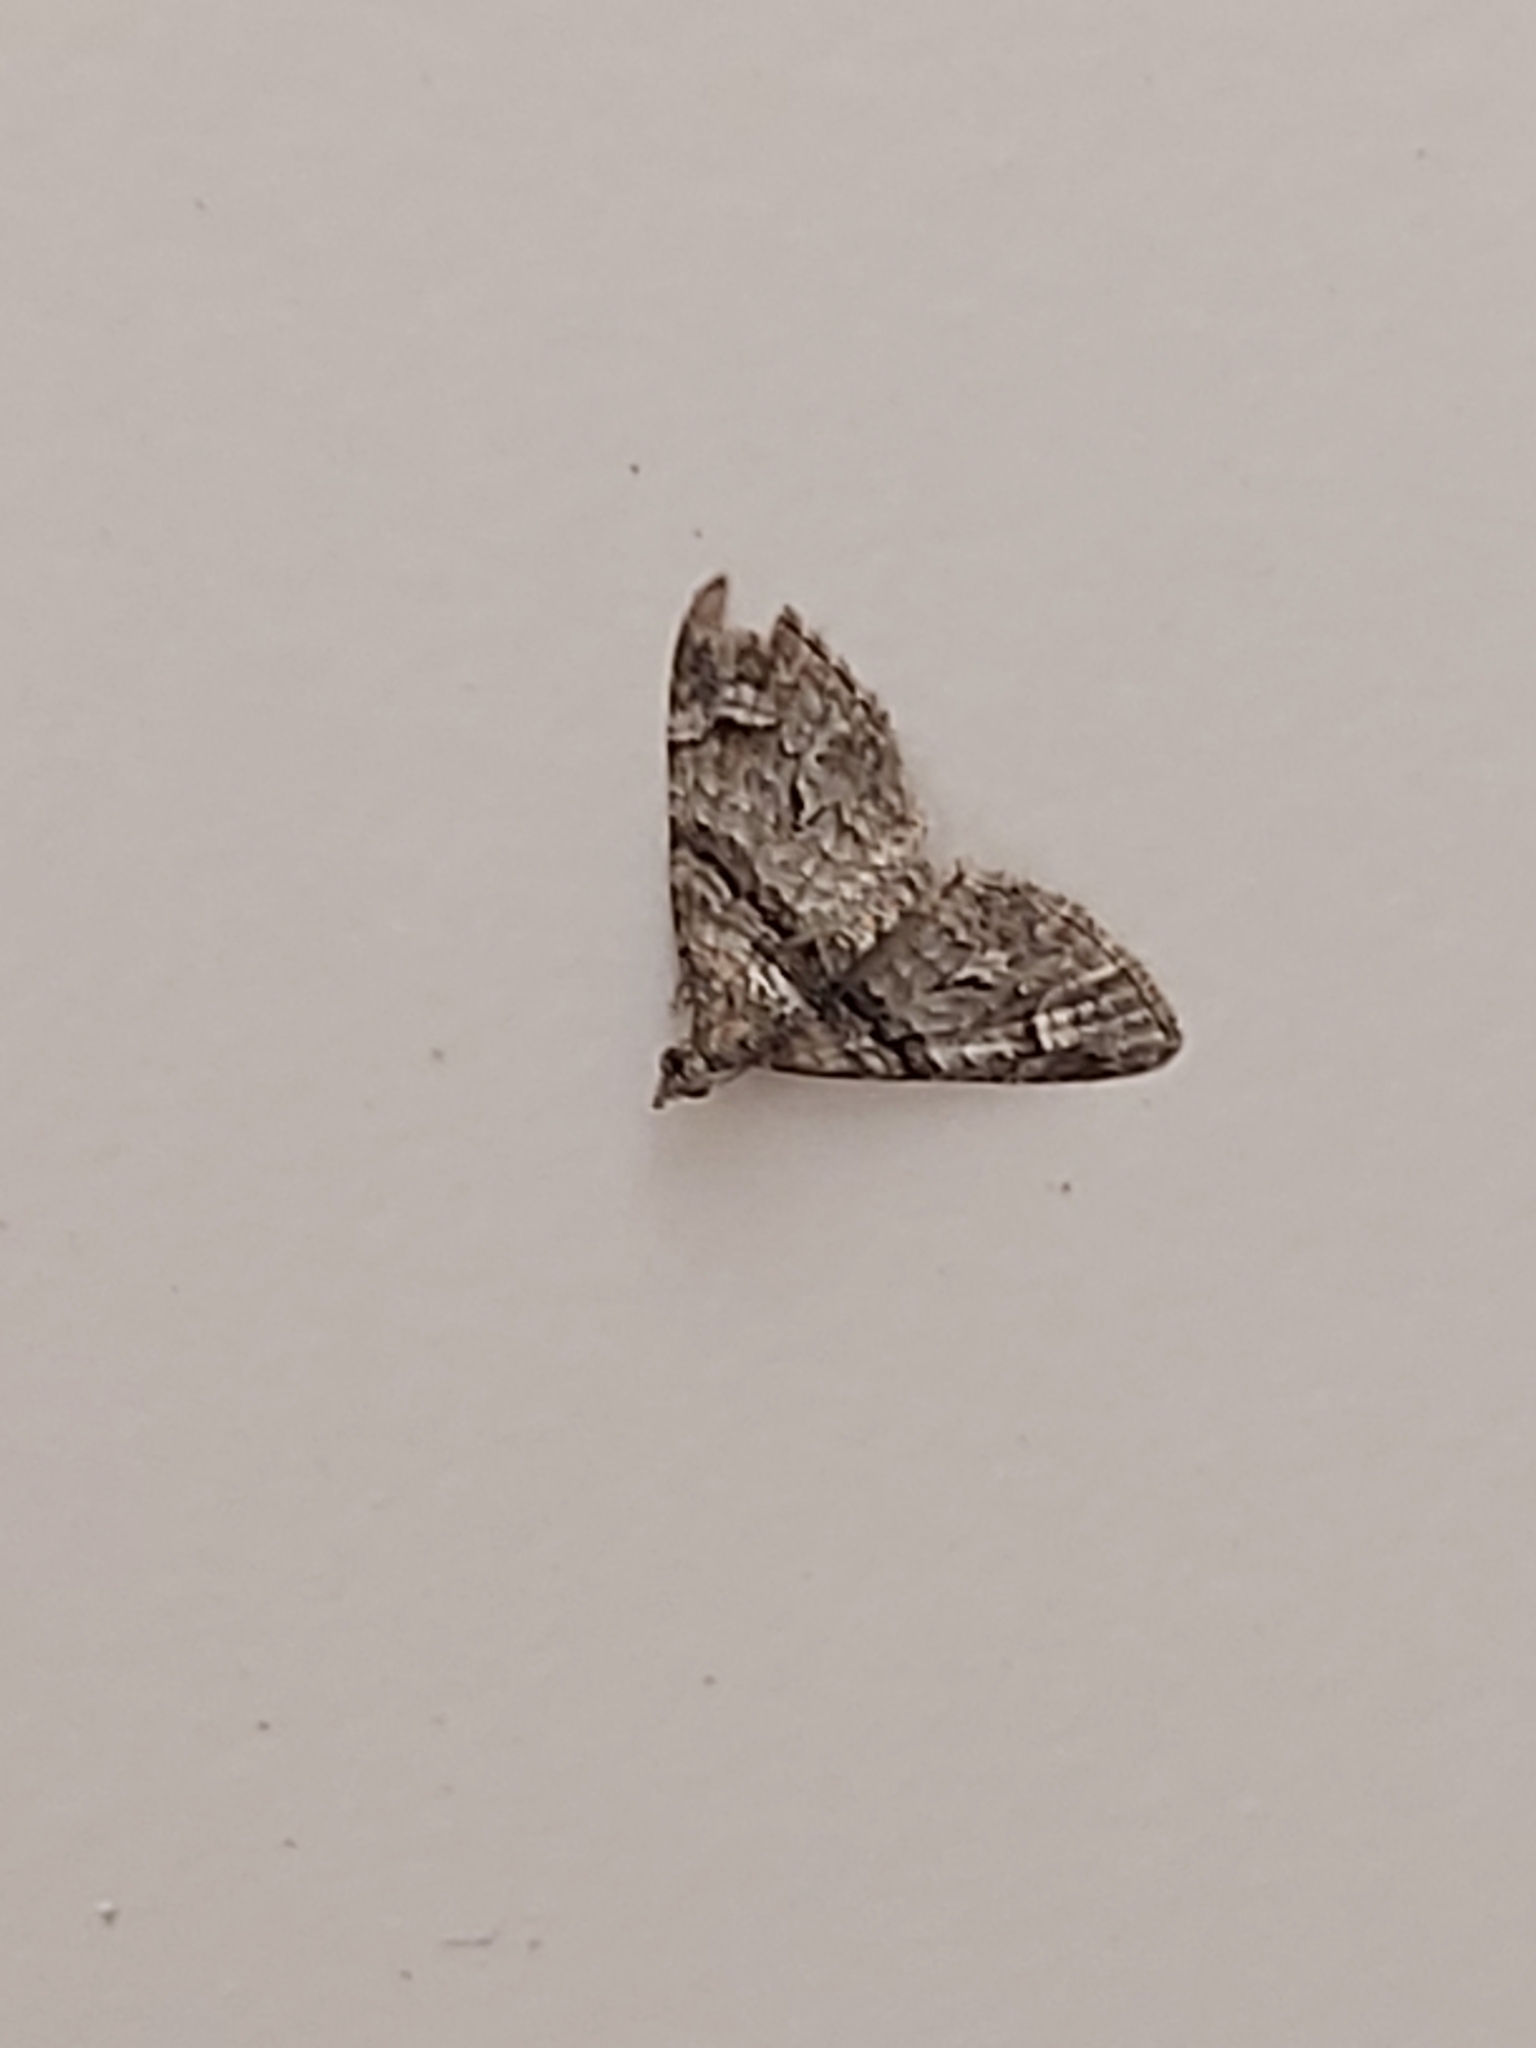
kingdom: Animalia
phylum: Arthropoda
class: Insecta
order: Lepidoptera
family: Geometridae
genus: Phrissogonus
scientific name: Phrissogonus laticostata
